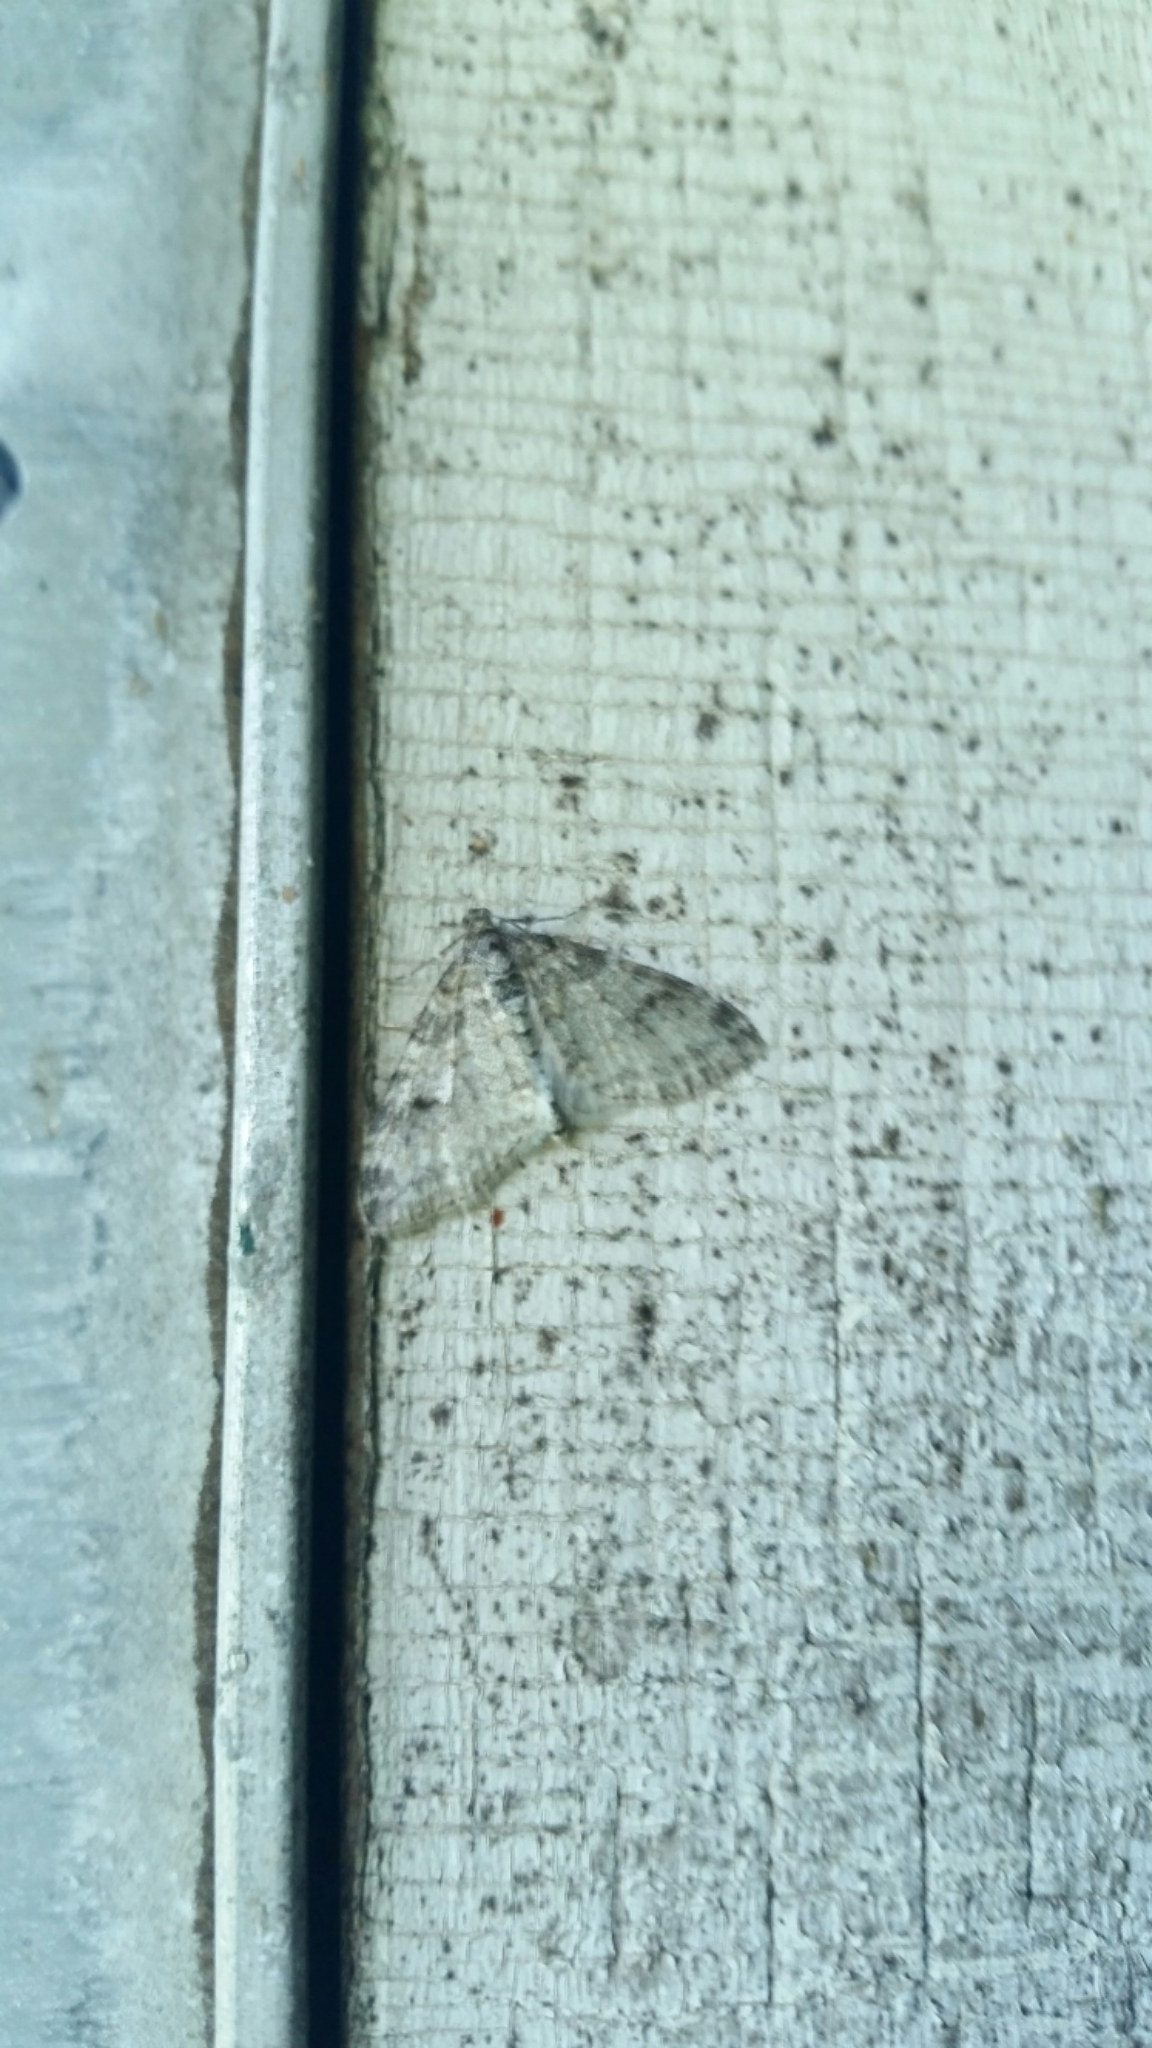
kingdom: Animalia
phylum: Arthropoda
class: Insecta
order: Lepidoptera
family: Geometridae
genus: Lobophora
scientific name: Lobophora nivigerata
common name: Powdered bigwing
